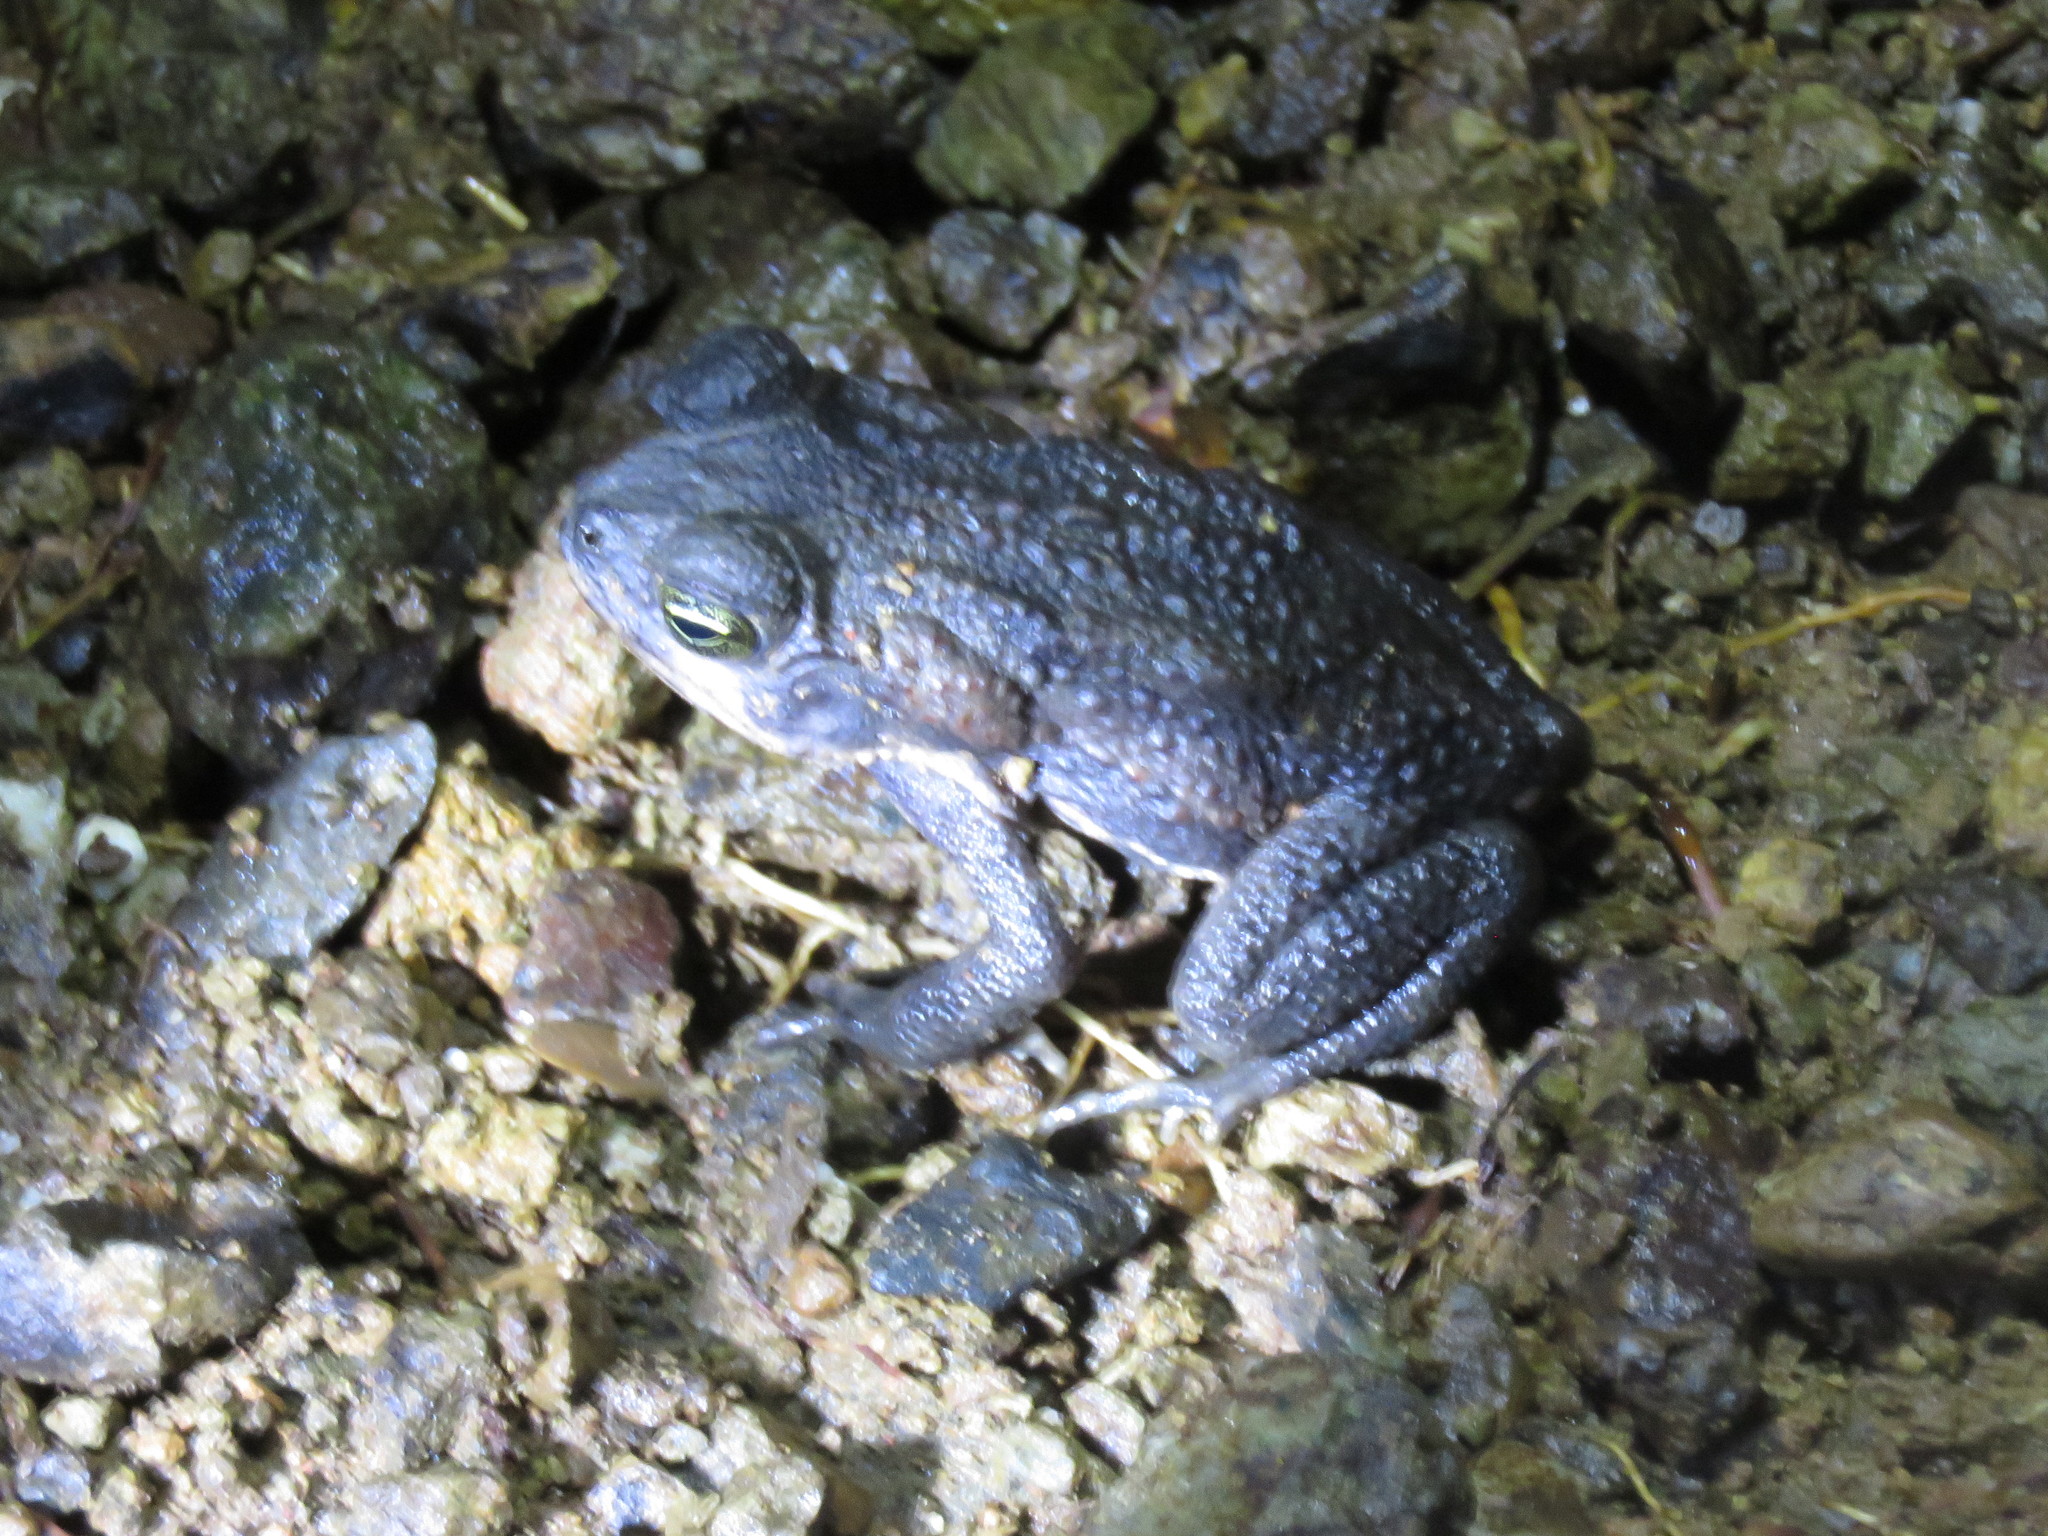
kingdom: Animalia
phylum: Chordata
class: Amphibia
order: Anura
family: Bufonidae
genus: Rhinella
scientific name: Rhinella horribilis
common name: Mesoamerican cane toad
